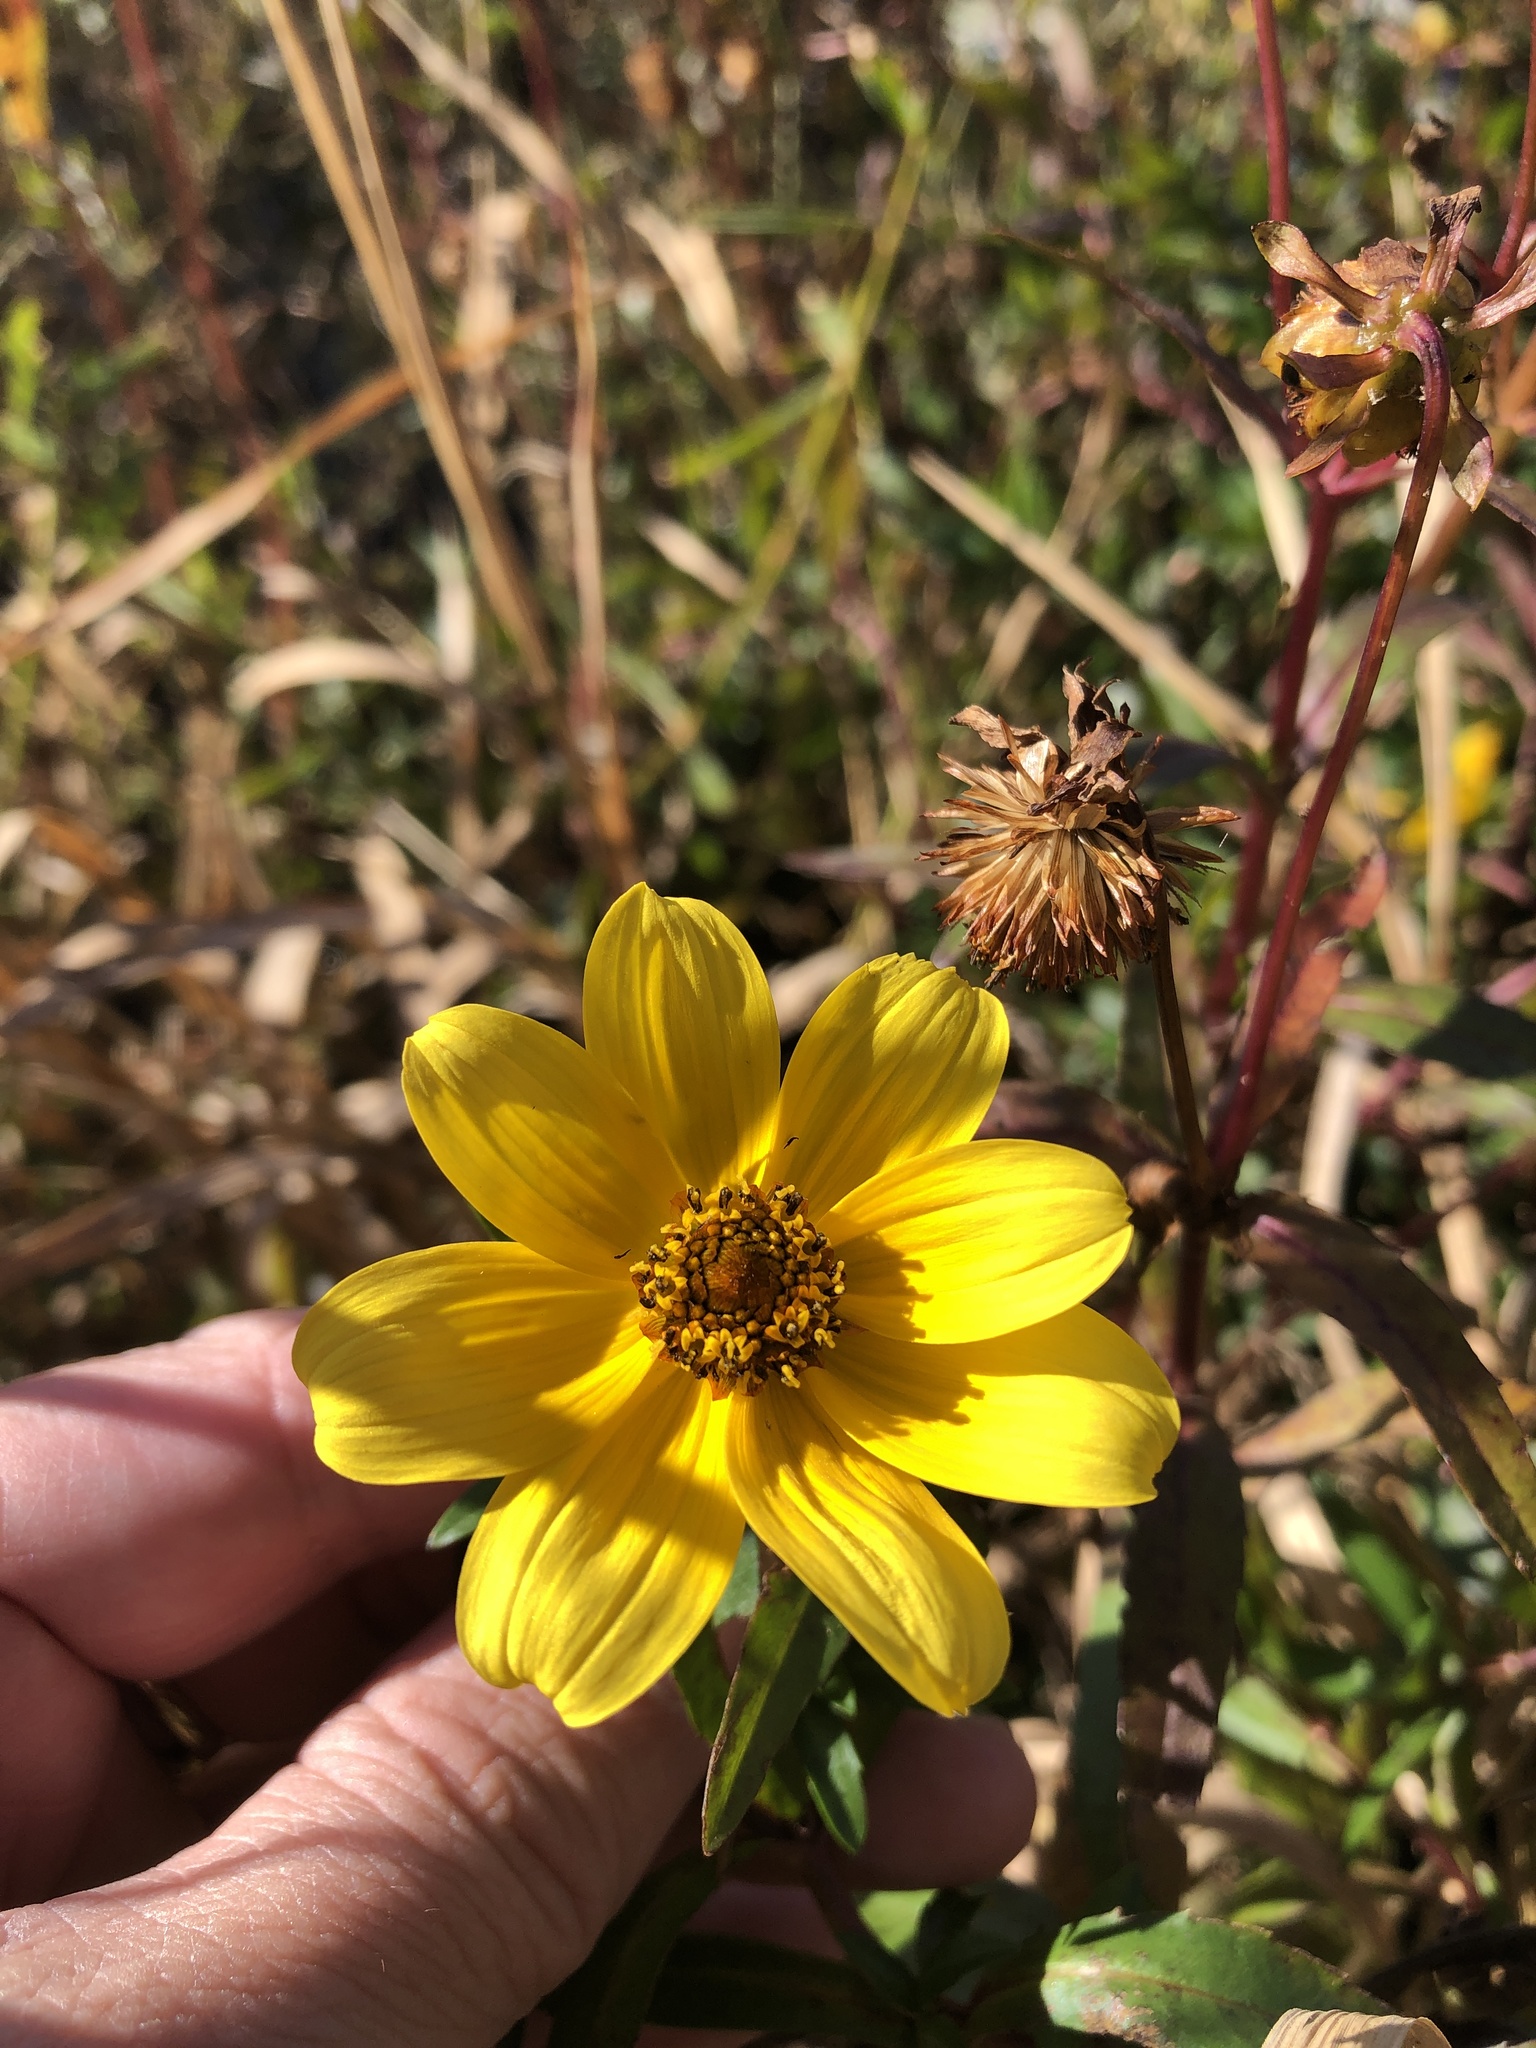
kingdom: Plantae
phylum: Tracheophyta
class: Magnoliopsida
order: Asterales
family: Asteraceae
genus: Bidens
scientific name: Bidens laevis
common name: Larger bur-marigold
